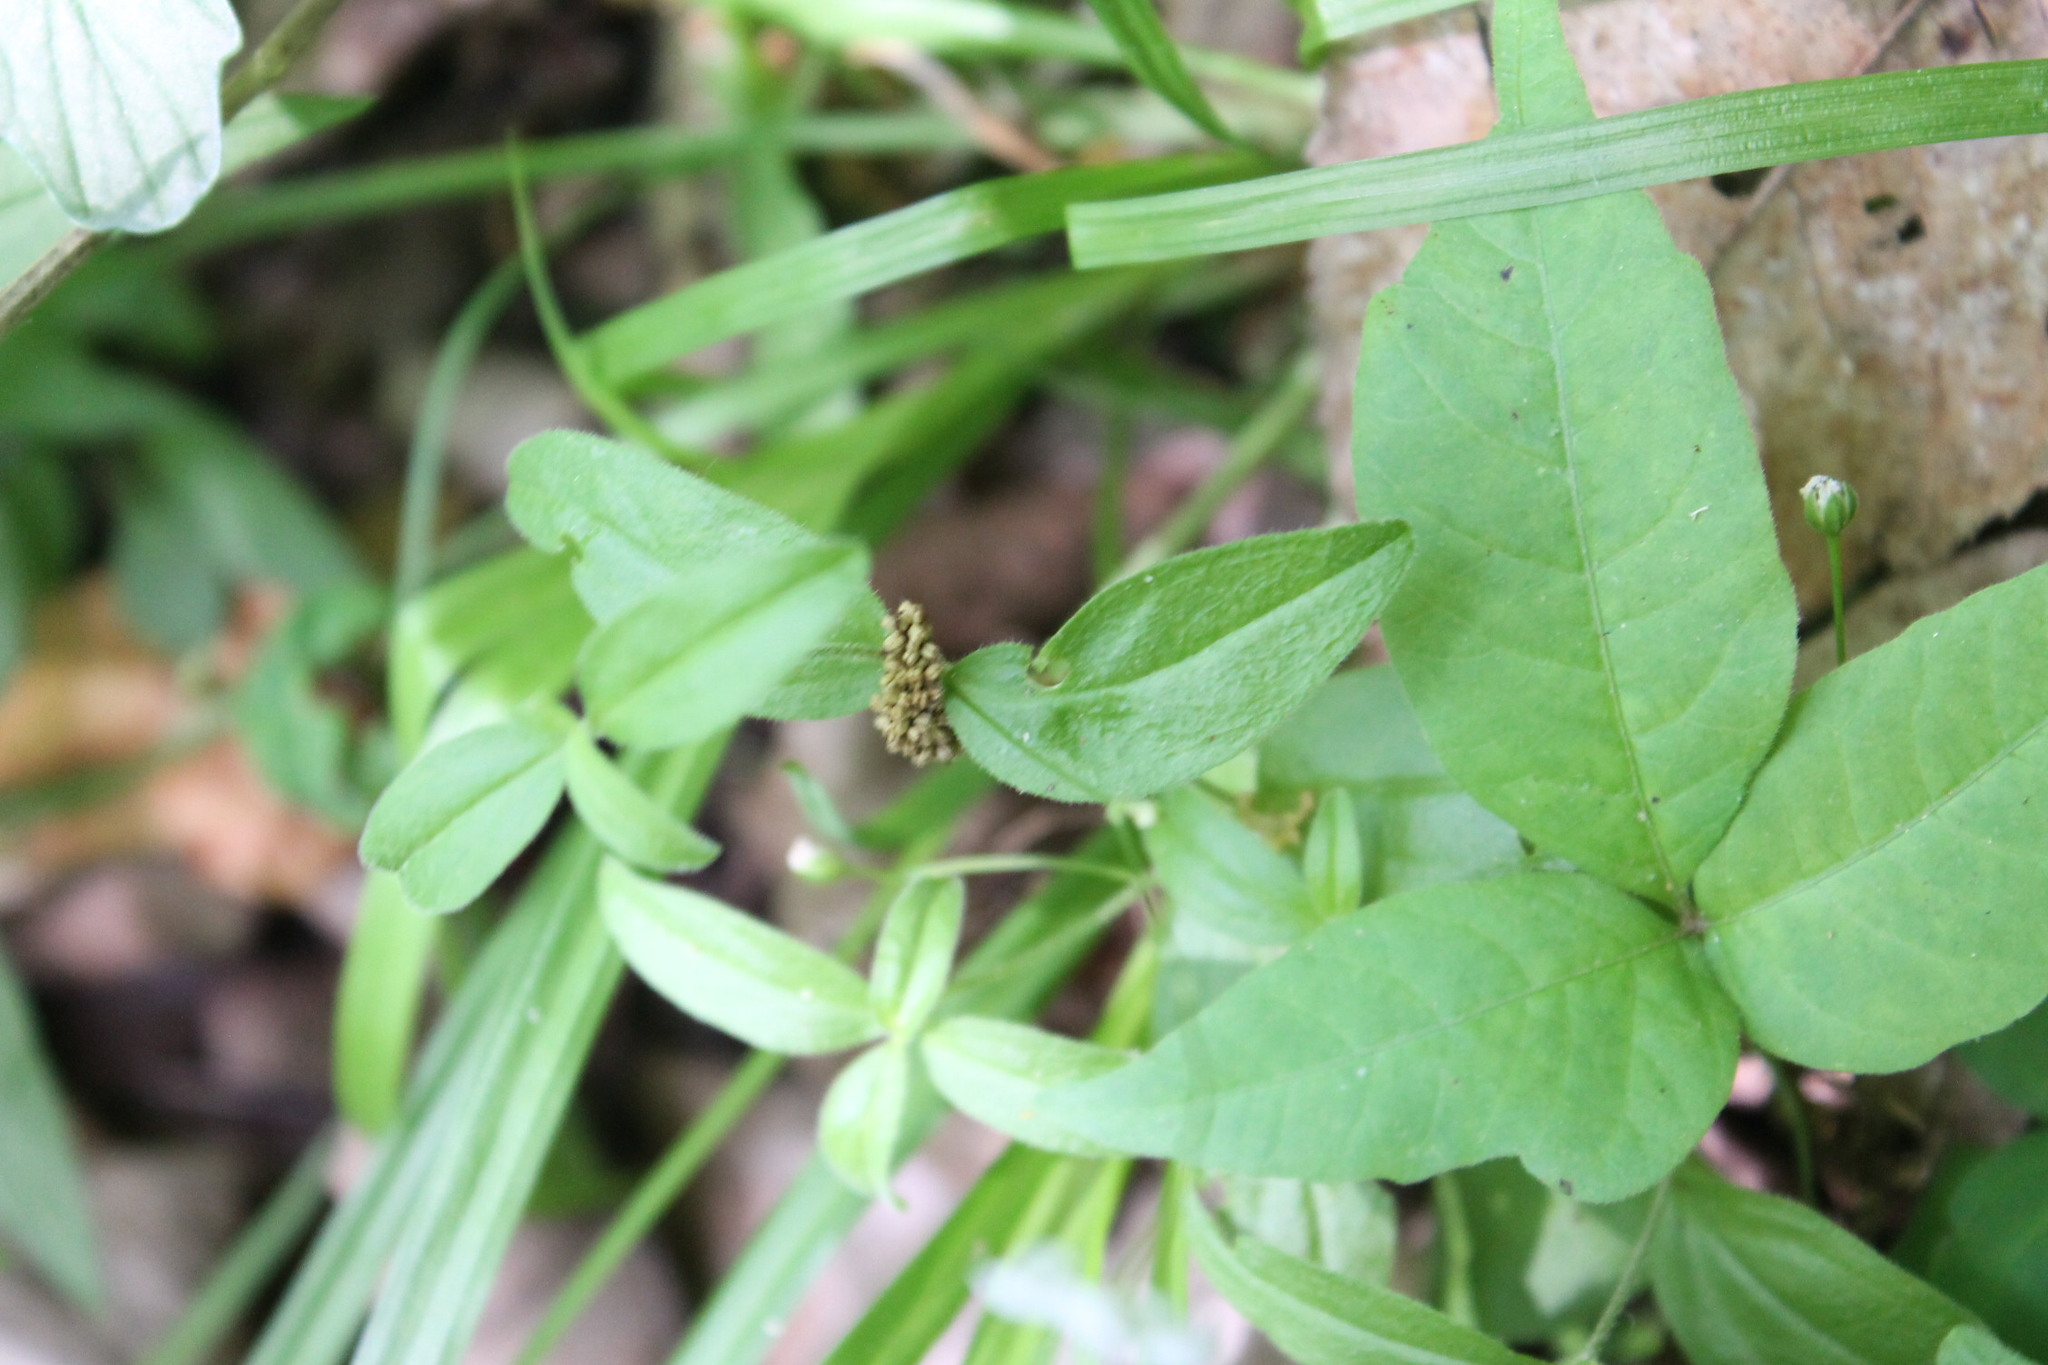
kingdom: Plantae
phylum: Tracheophyta
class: Magnoliopsida
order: Caryophyllales
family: Caryophyllaceae
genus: Moehringia
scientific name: Moehringia lateriflora
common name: Blunt-leaved sandwort
